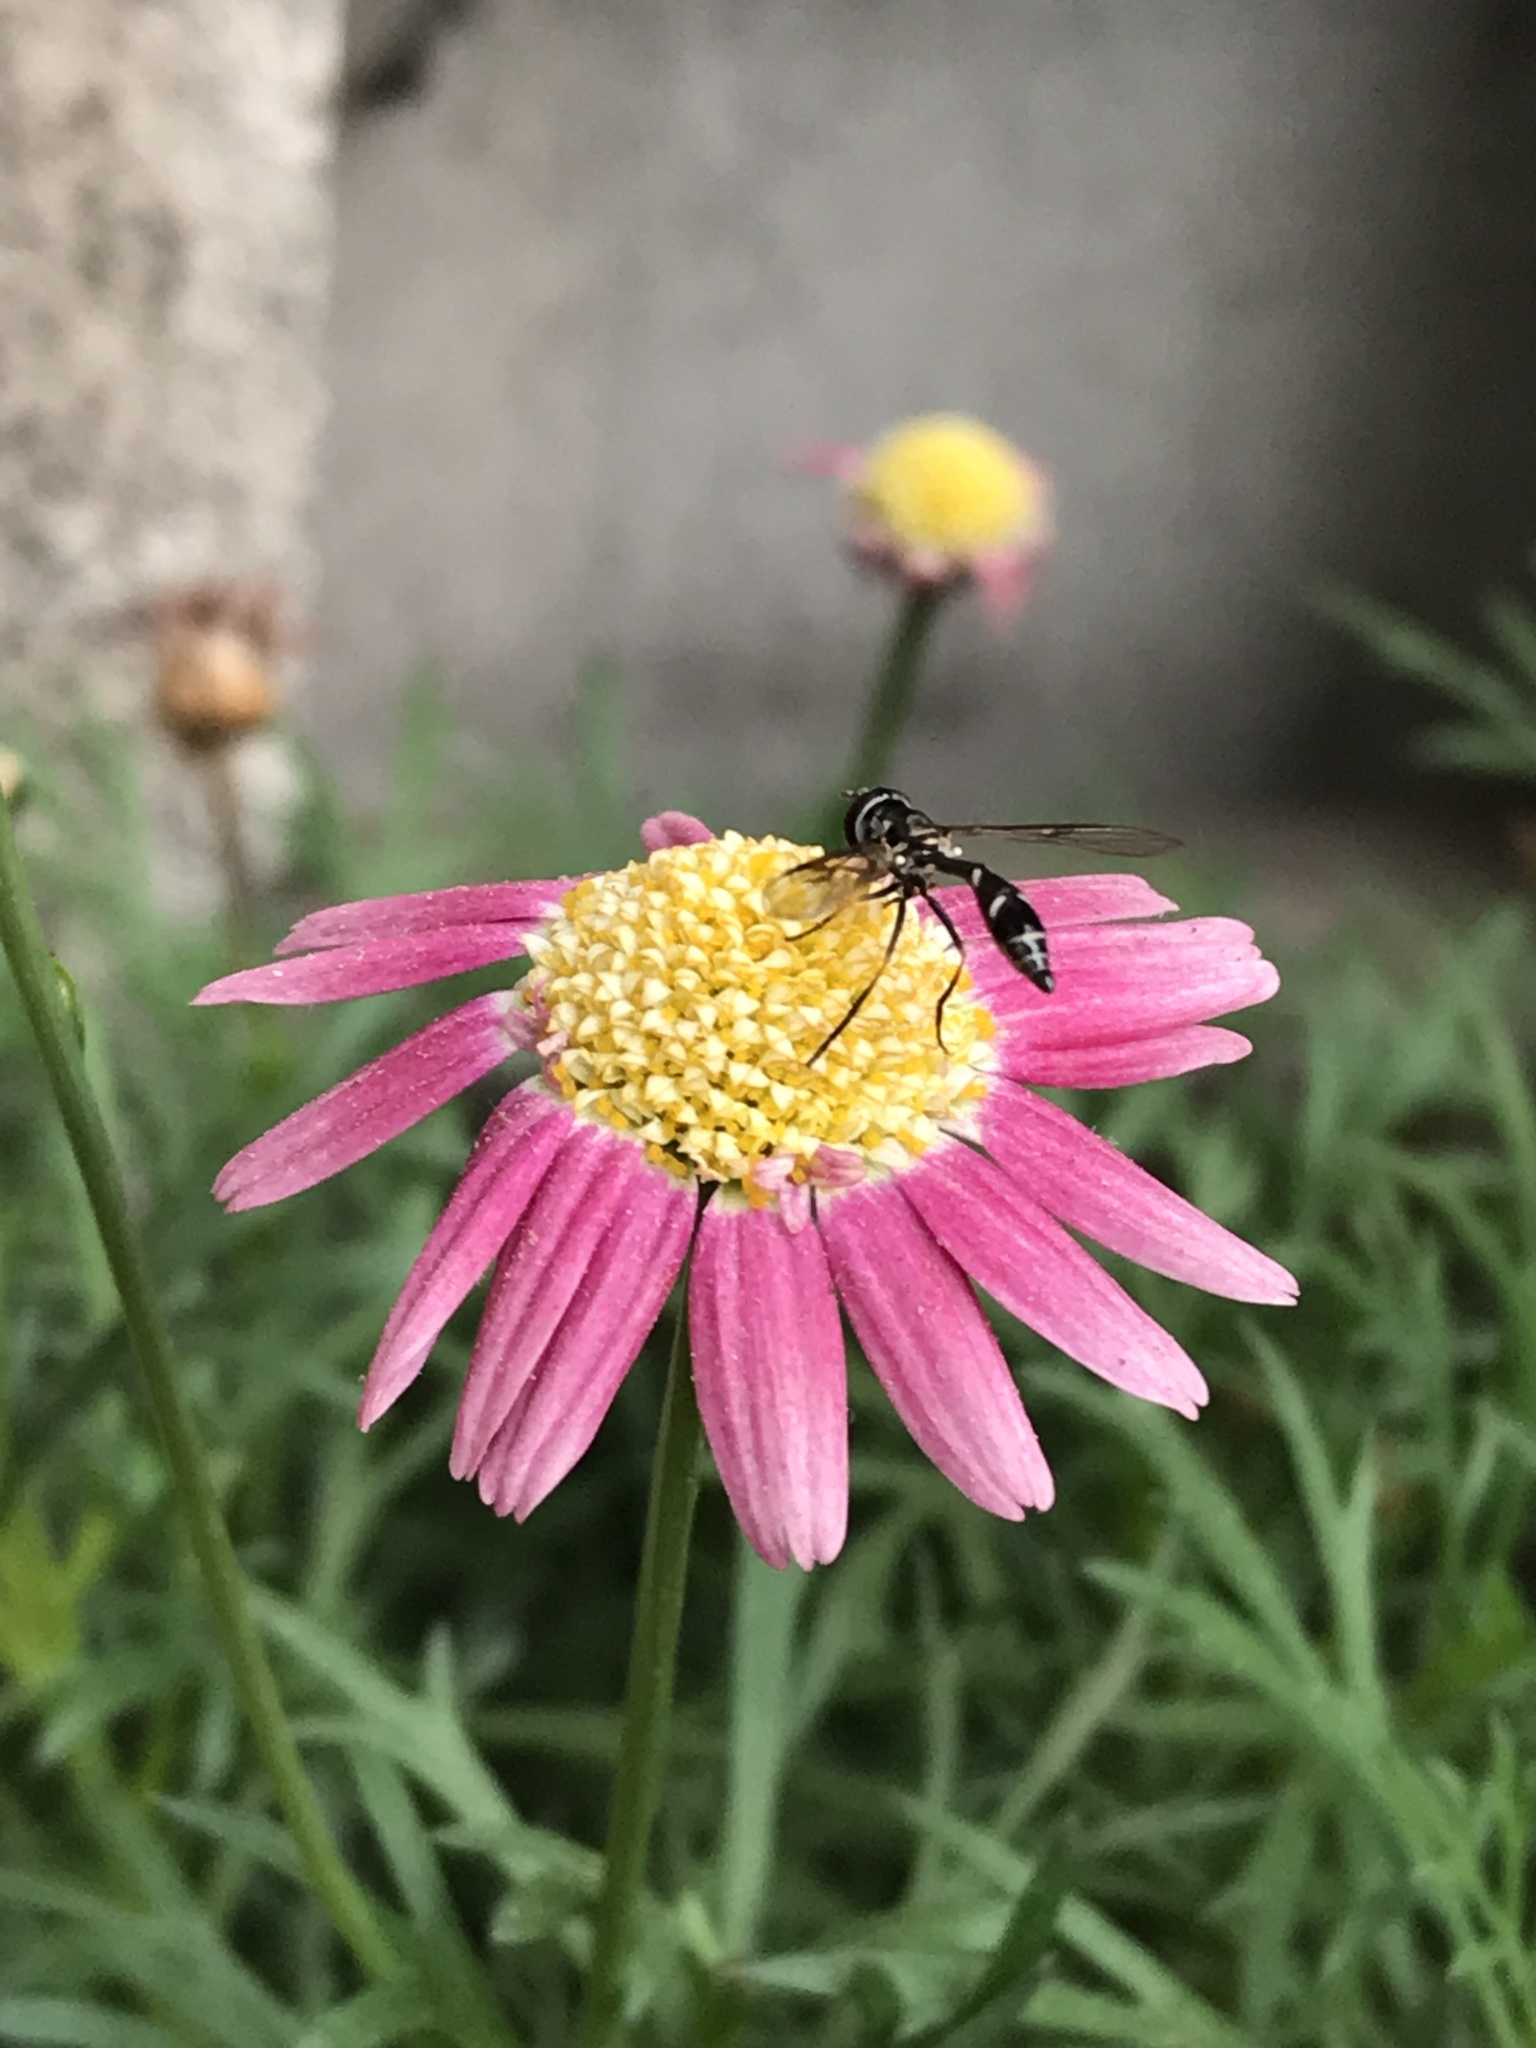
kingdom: Animalia
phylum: Arthropoda
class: Insecta
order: Diptera
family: Syrphidae
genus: Dioprosopa
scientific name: Dioprosopa clavatus
